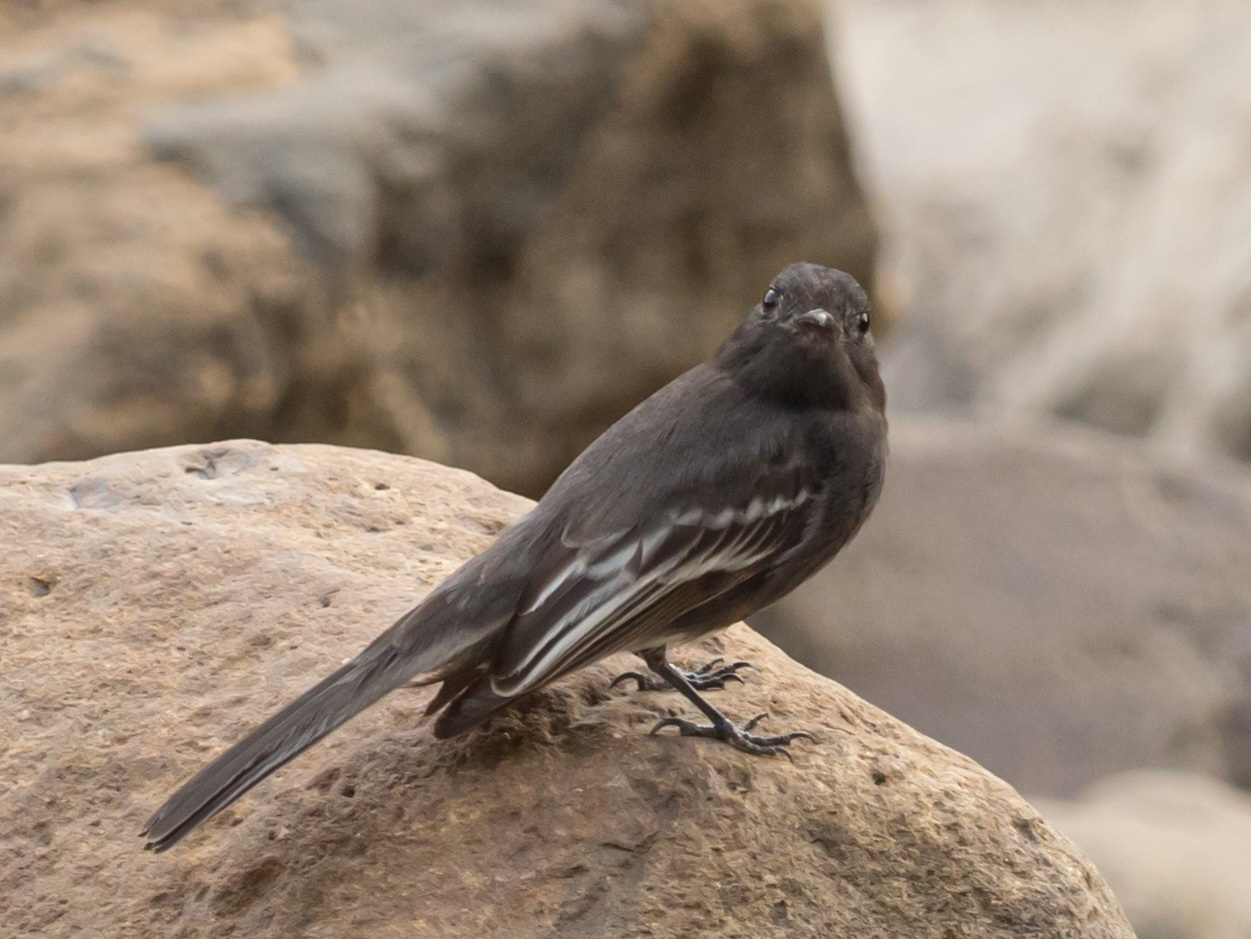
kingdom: Animalia
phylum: Chordata
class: Aves
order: Passeriformes
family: Tyrannidae
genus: Sayornis
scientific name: Sayornis nigricans
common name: Black phoebe
